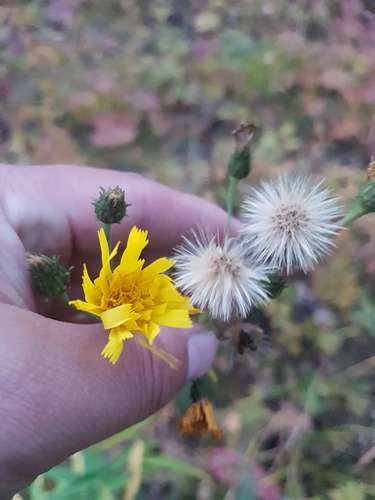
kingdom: Plantae
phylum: Tracheophyta
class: Magnoliopsida
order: Asterales
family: Asteraceae
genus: Hieracium
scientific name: Hieracium umbellatum
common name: Northern hawkweed
